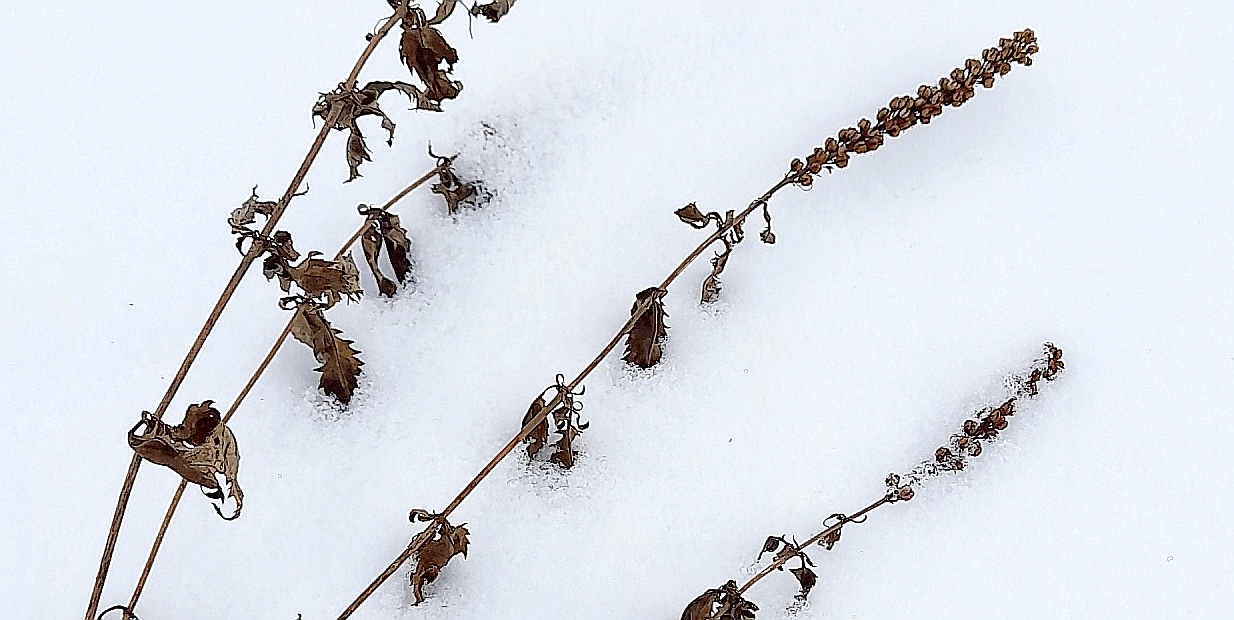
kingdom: Plantae
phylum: Tracheophyta
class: Magnoliopsida
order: Lamiales
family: Plantaginaceae
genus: Veronica
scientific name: Veronica longifolia
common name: Garden speedwell
